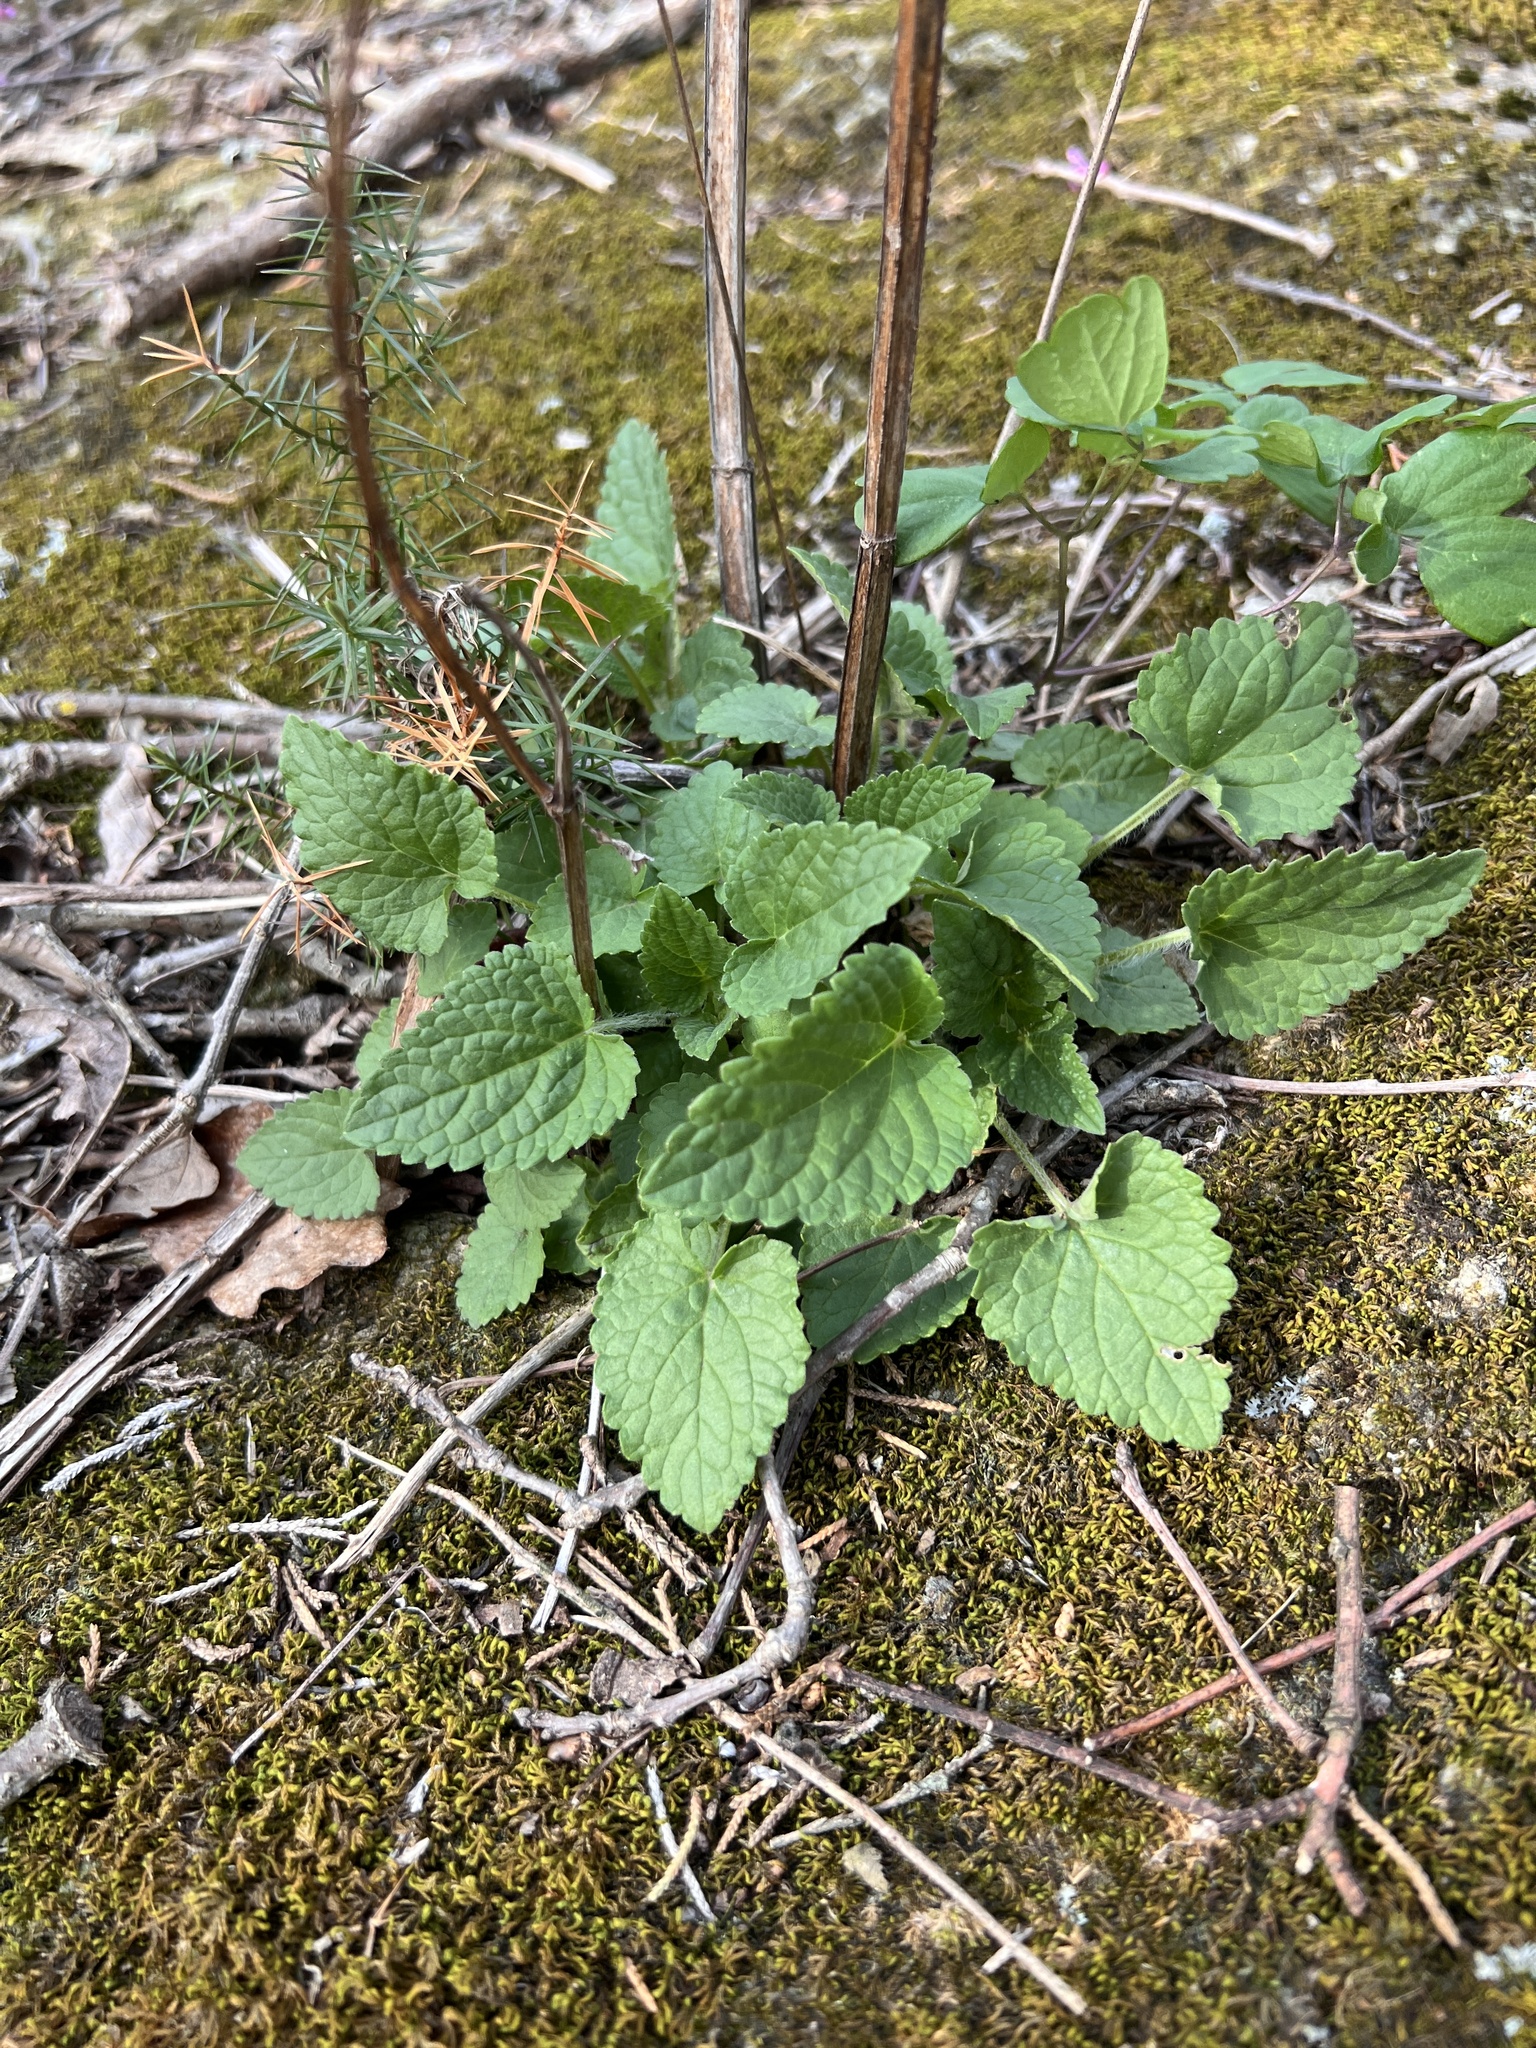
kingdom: Plantae
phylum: Tracheophyta
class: Magnoliopsida
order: Lamiales
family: Lamiaceae
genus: Agastache
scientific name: Agastache nepetoides
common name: Catnip giant hyssop
